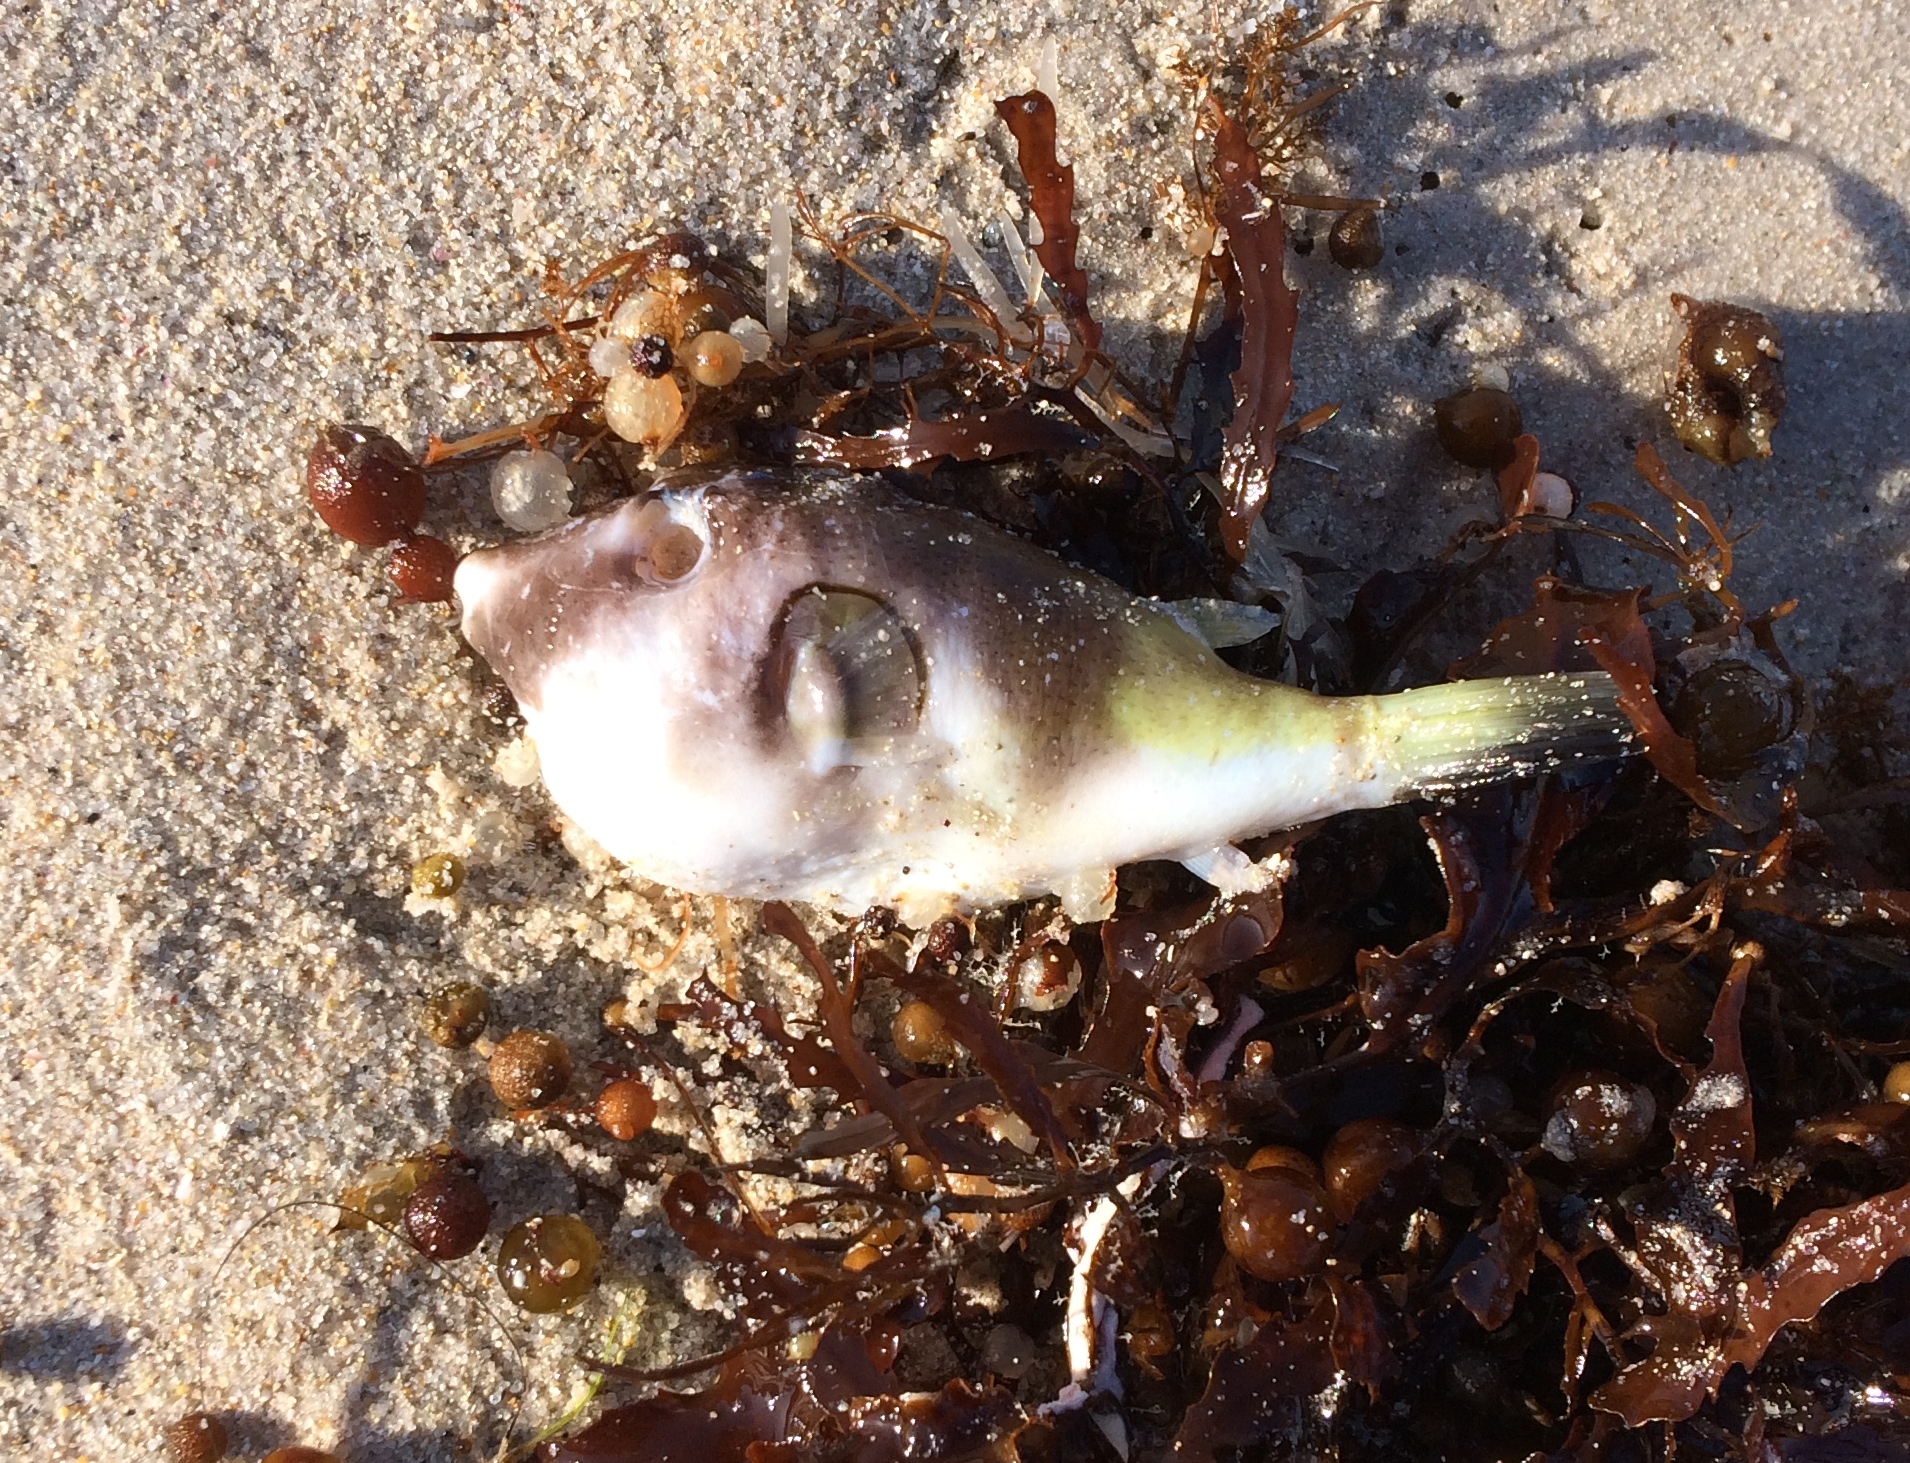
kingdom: Animalia
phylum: Chordata
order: Tetraodontiformes
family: Tetraodontidae
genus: Omegophora
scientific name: Omegophora armilla
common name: Ringed pufferfish
